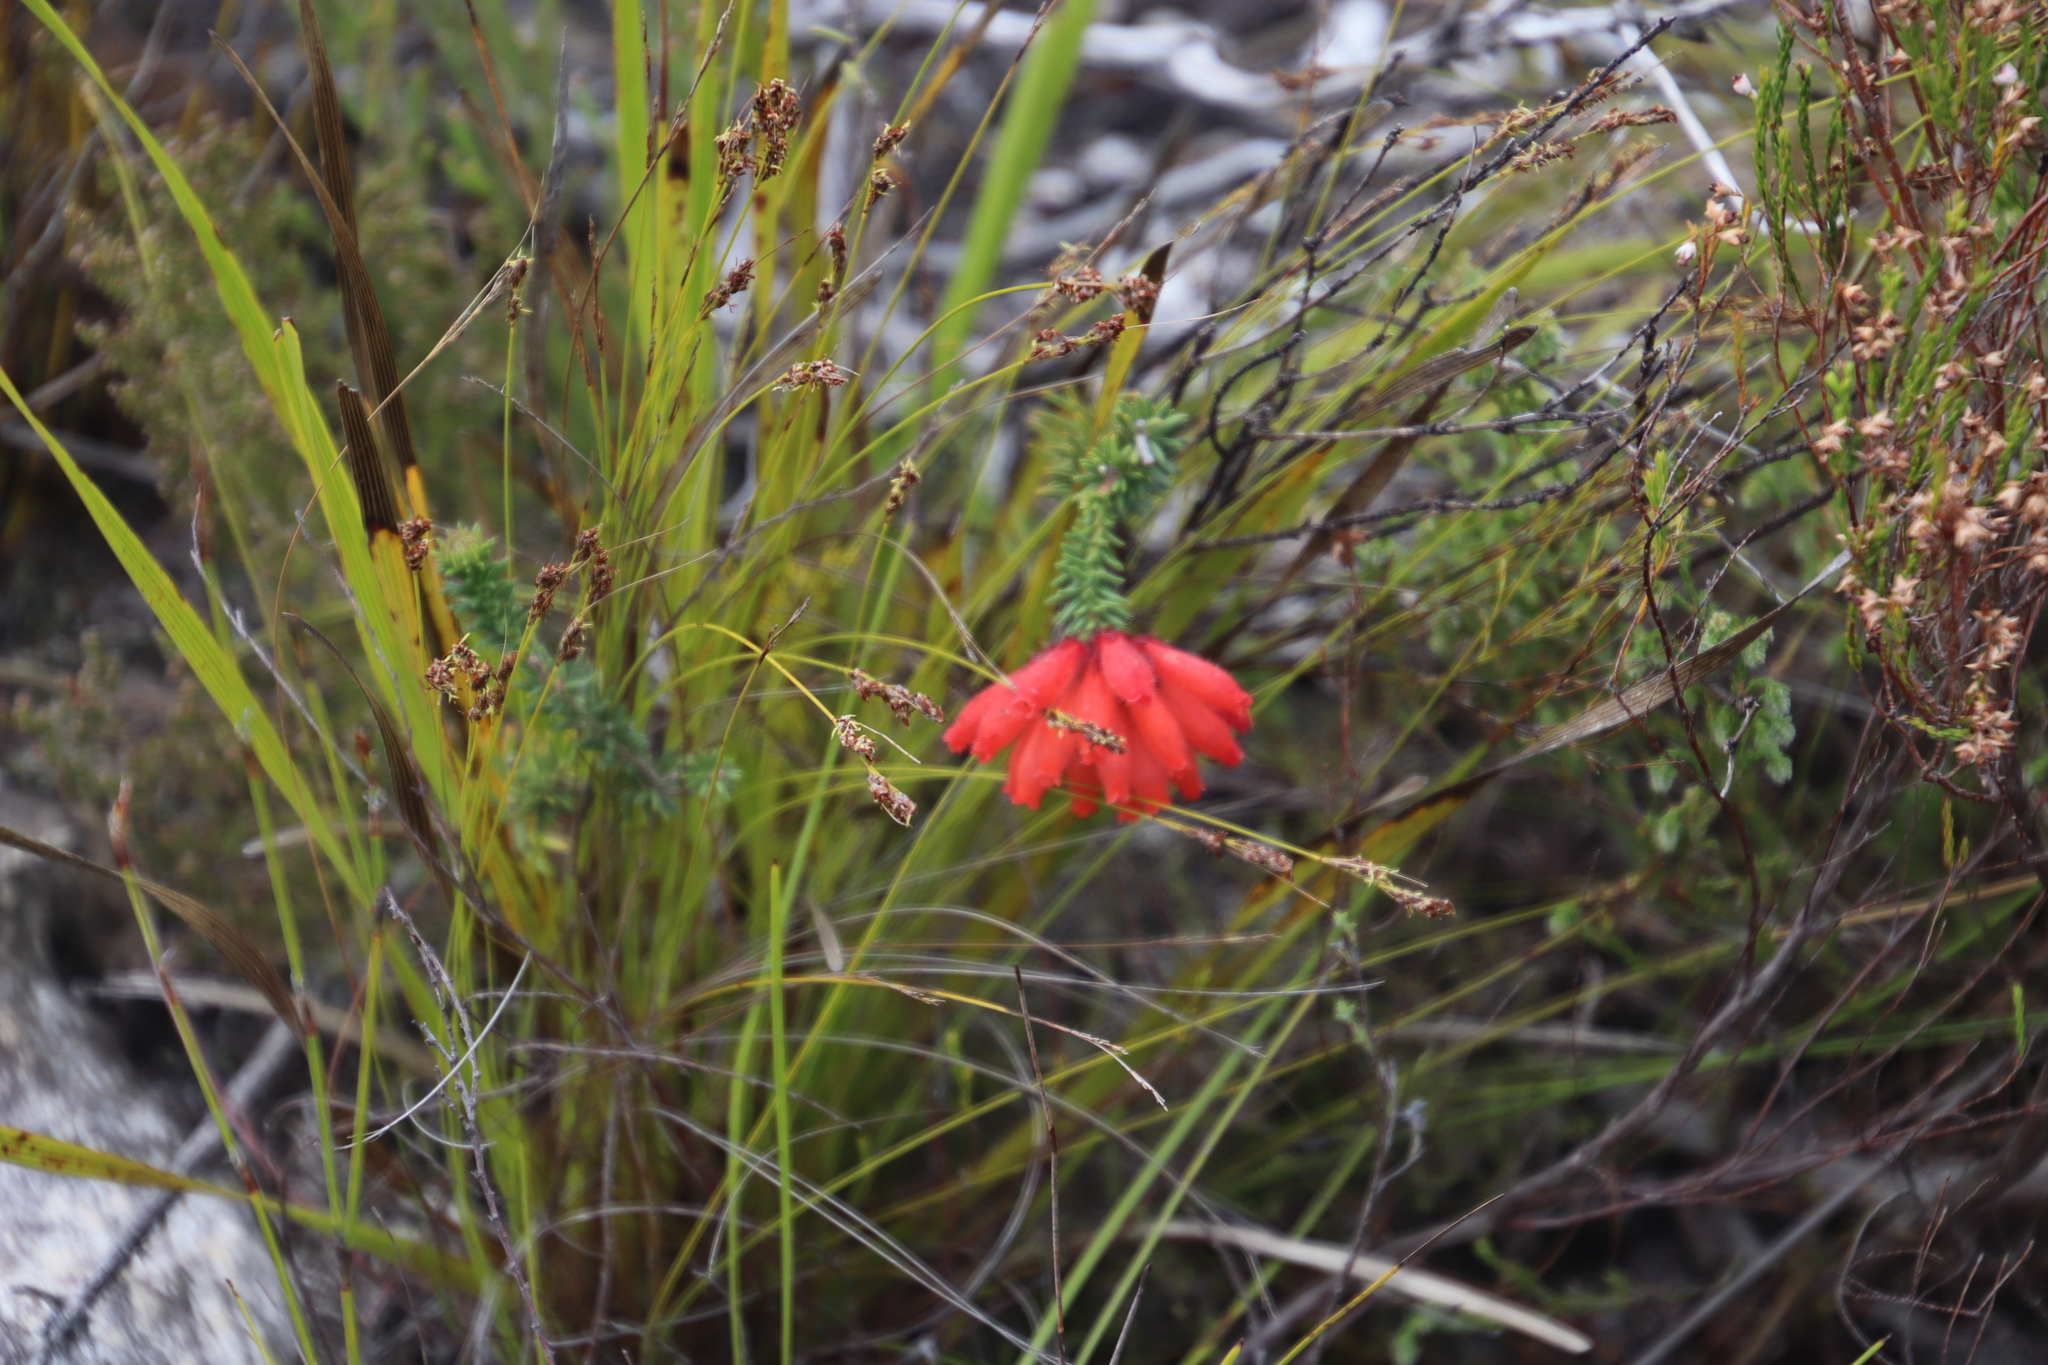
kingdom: Plantae
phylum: Tracheophyta
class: Magnoliopsida
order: Ericales
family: Ericaceae
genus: Erica
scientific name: Erica cerinthoides
